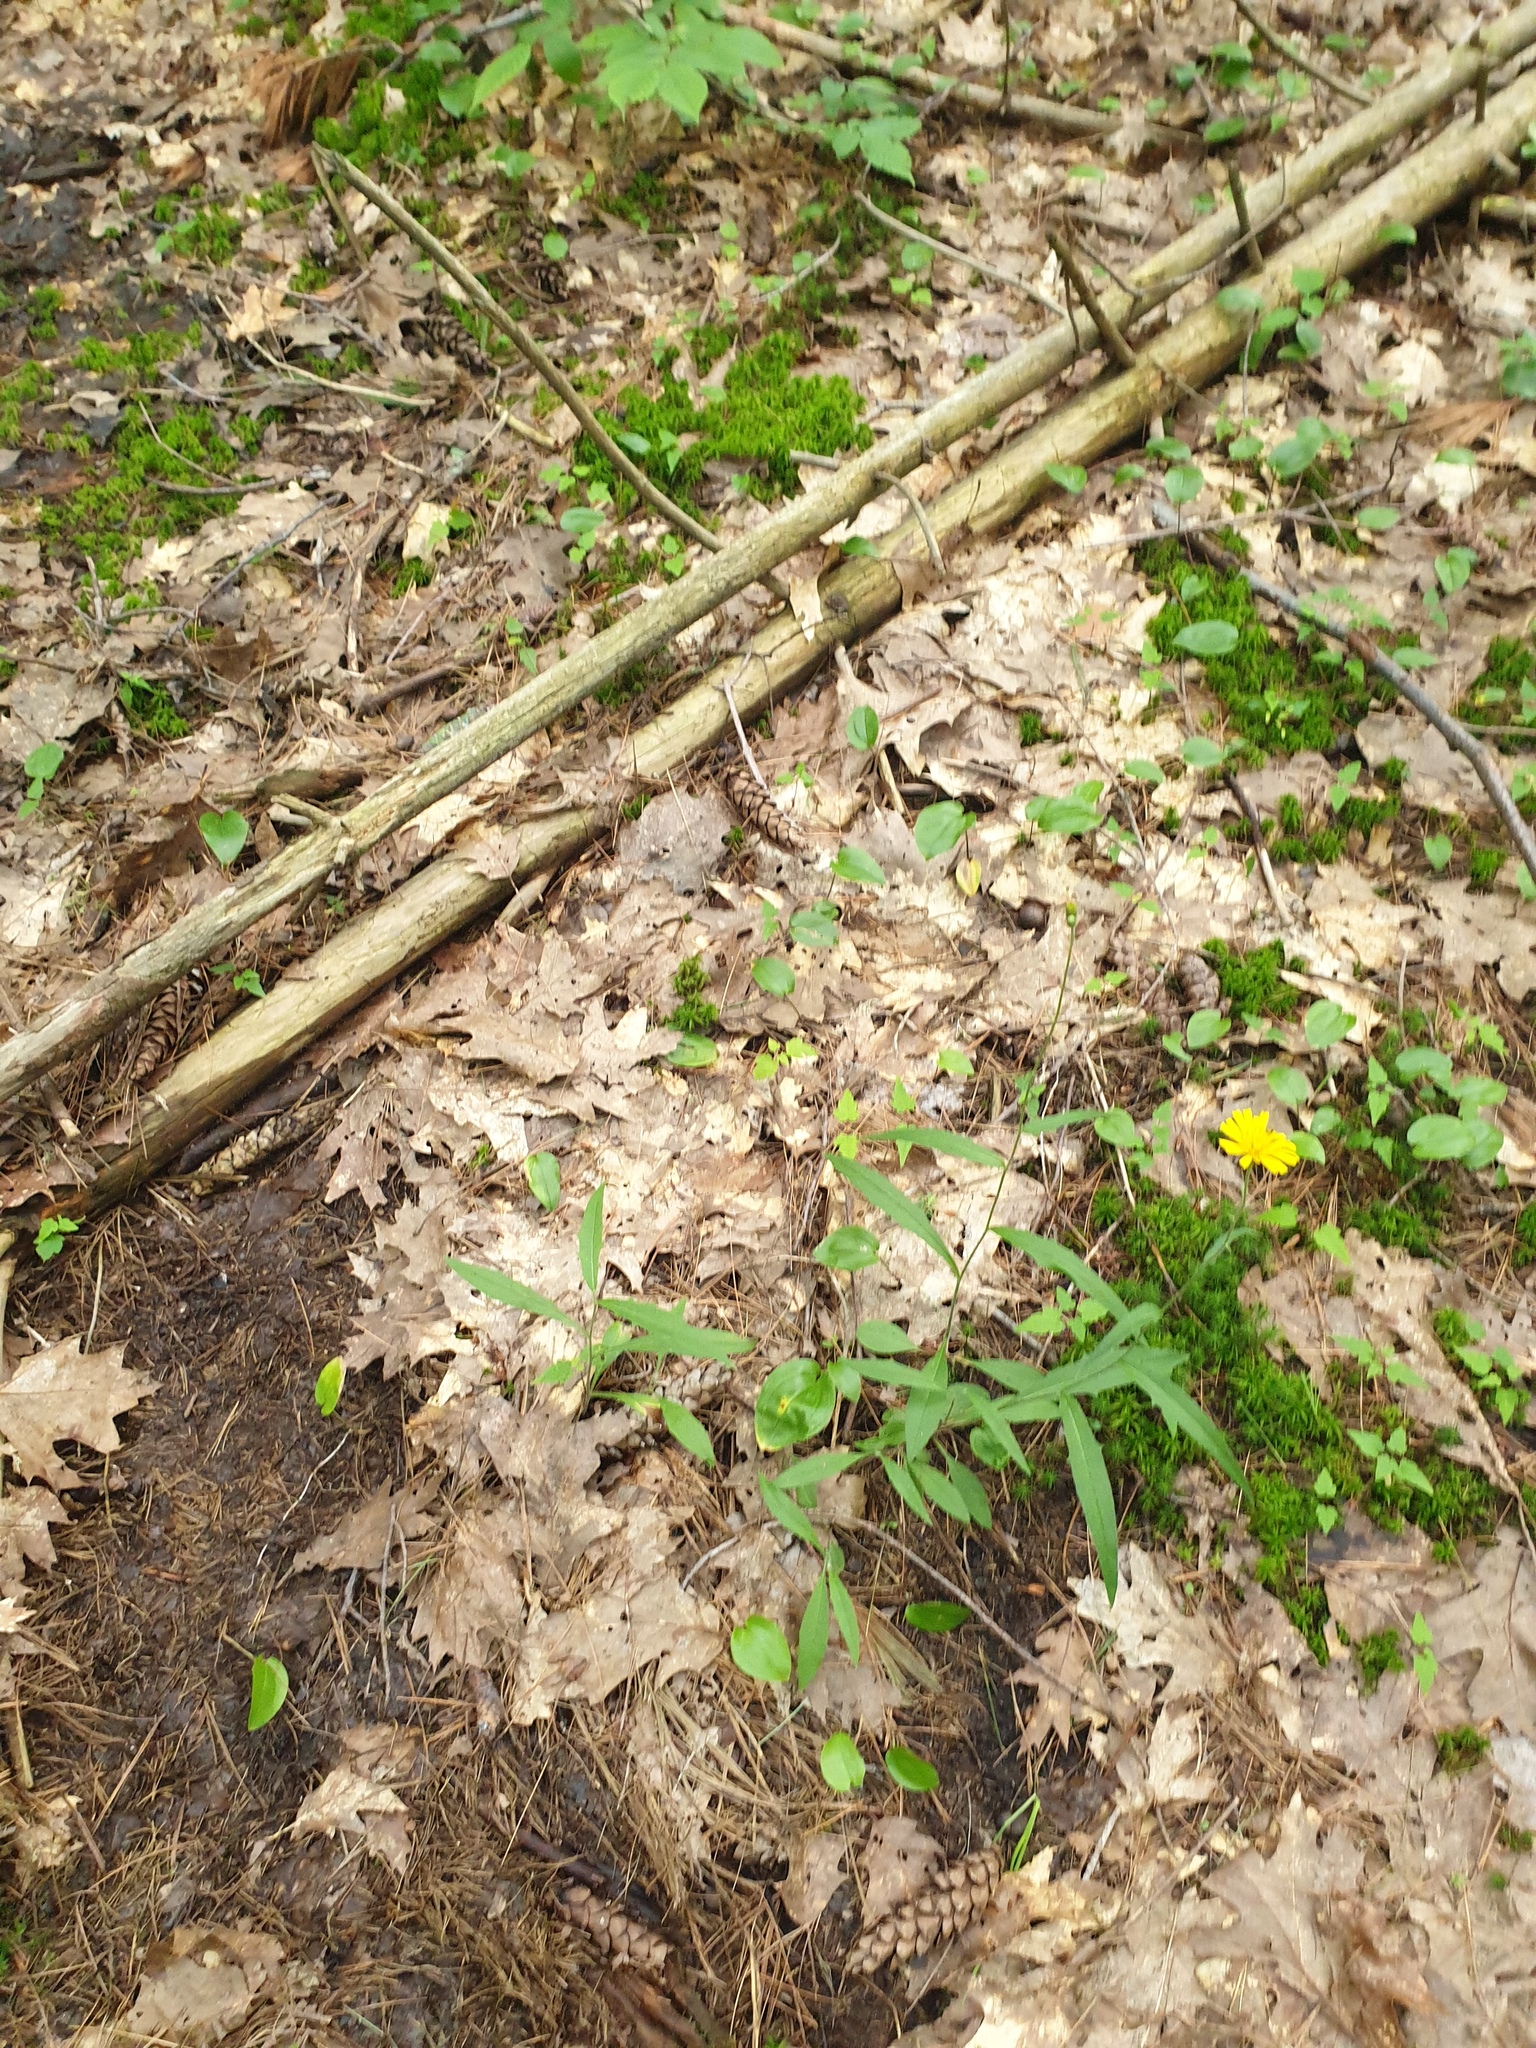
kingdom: Plantae
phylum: Tracheophyta
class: Magnoliopsida
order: Asterales
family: Asteraceae
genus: Hieracium
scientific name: Hieracium tridentatum
